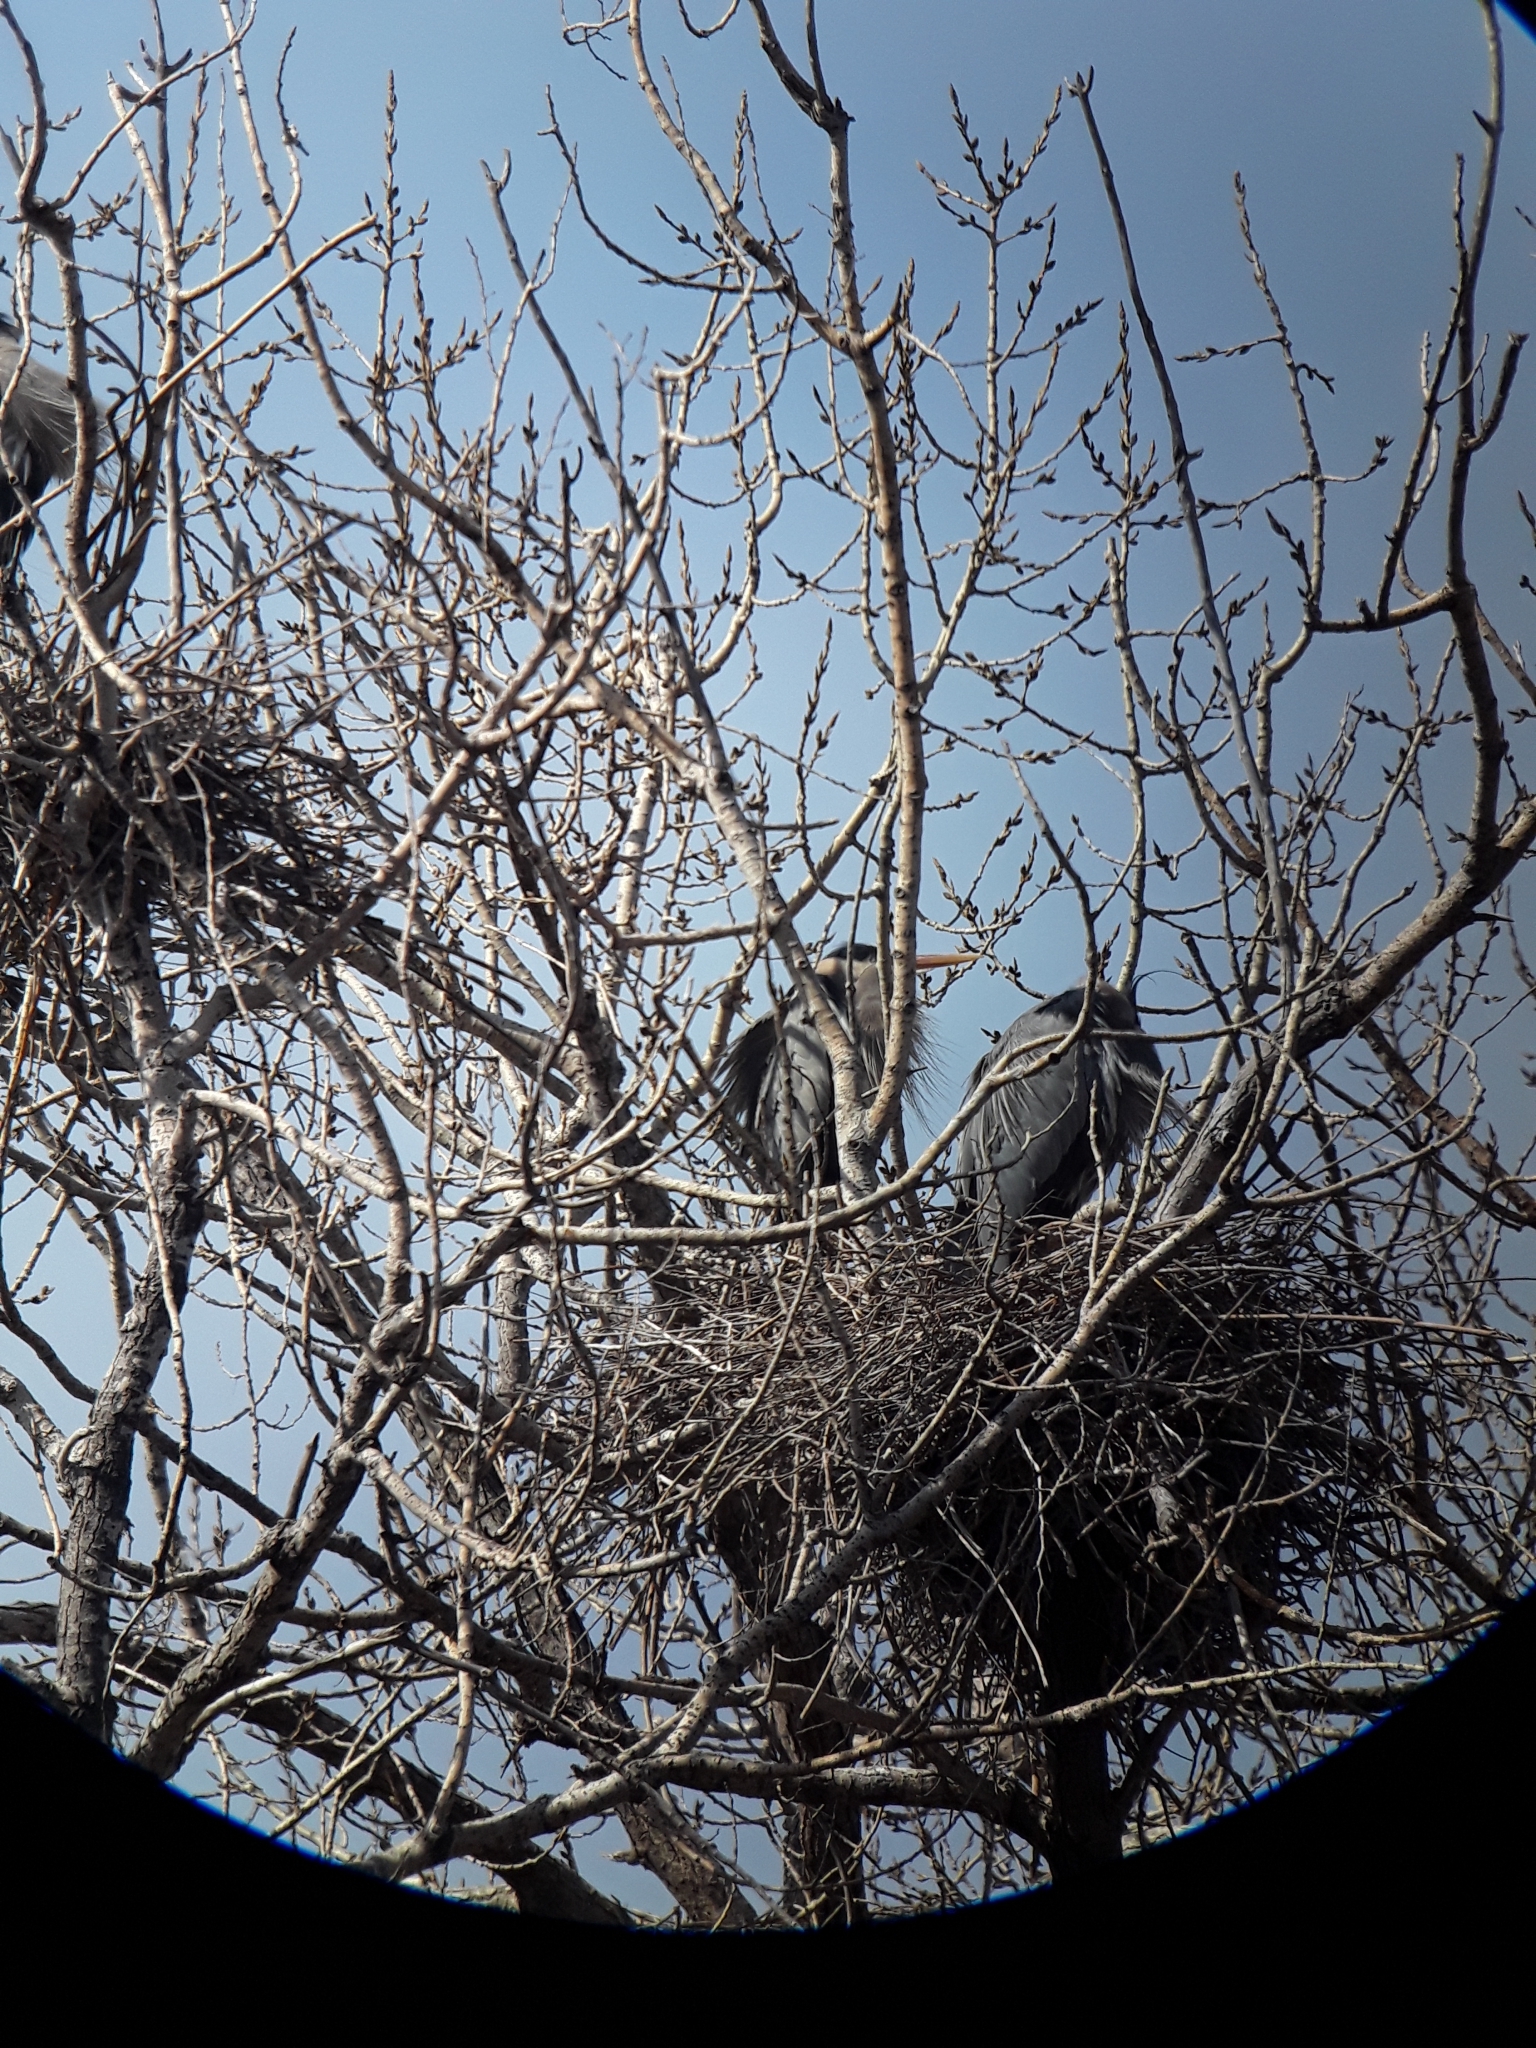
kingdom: Animalia
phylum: Chordata
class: Aves
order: Pelecaniformes
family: Ardeidae
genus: Ardea
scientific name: Ardea herodias
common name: Great blue heron
